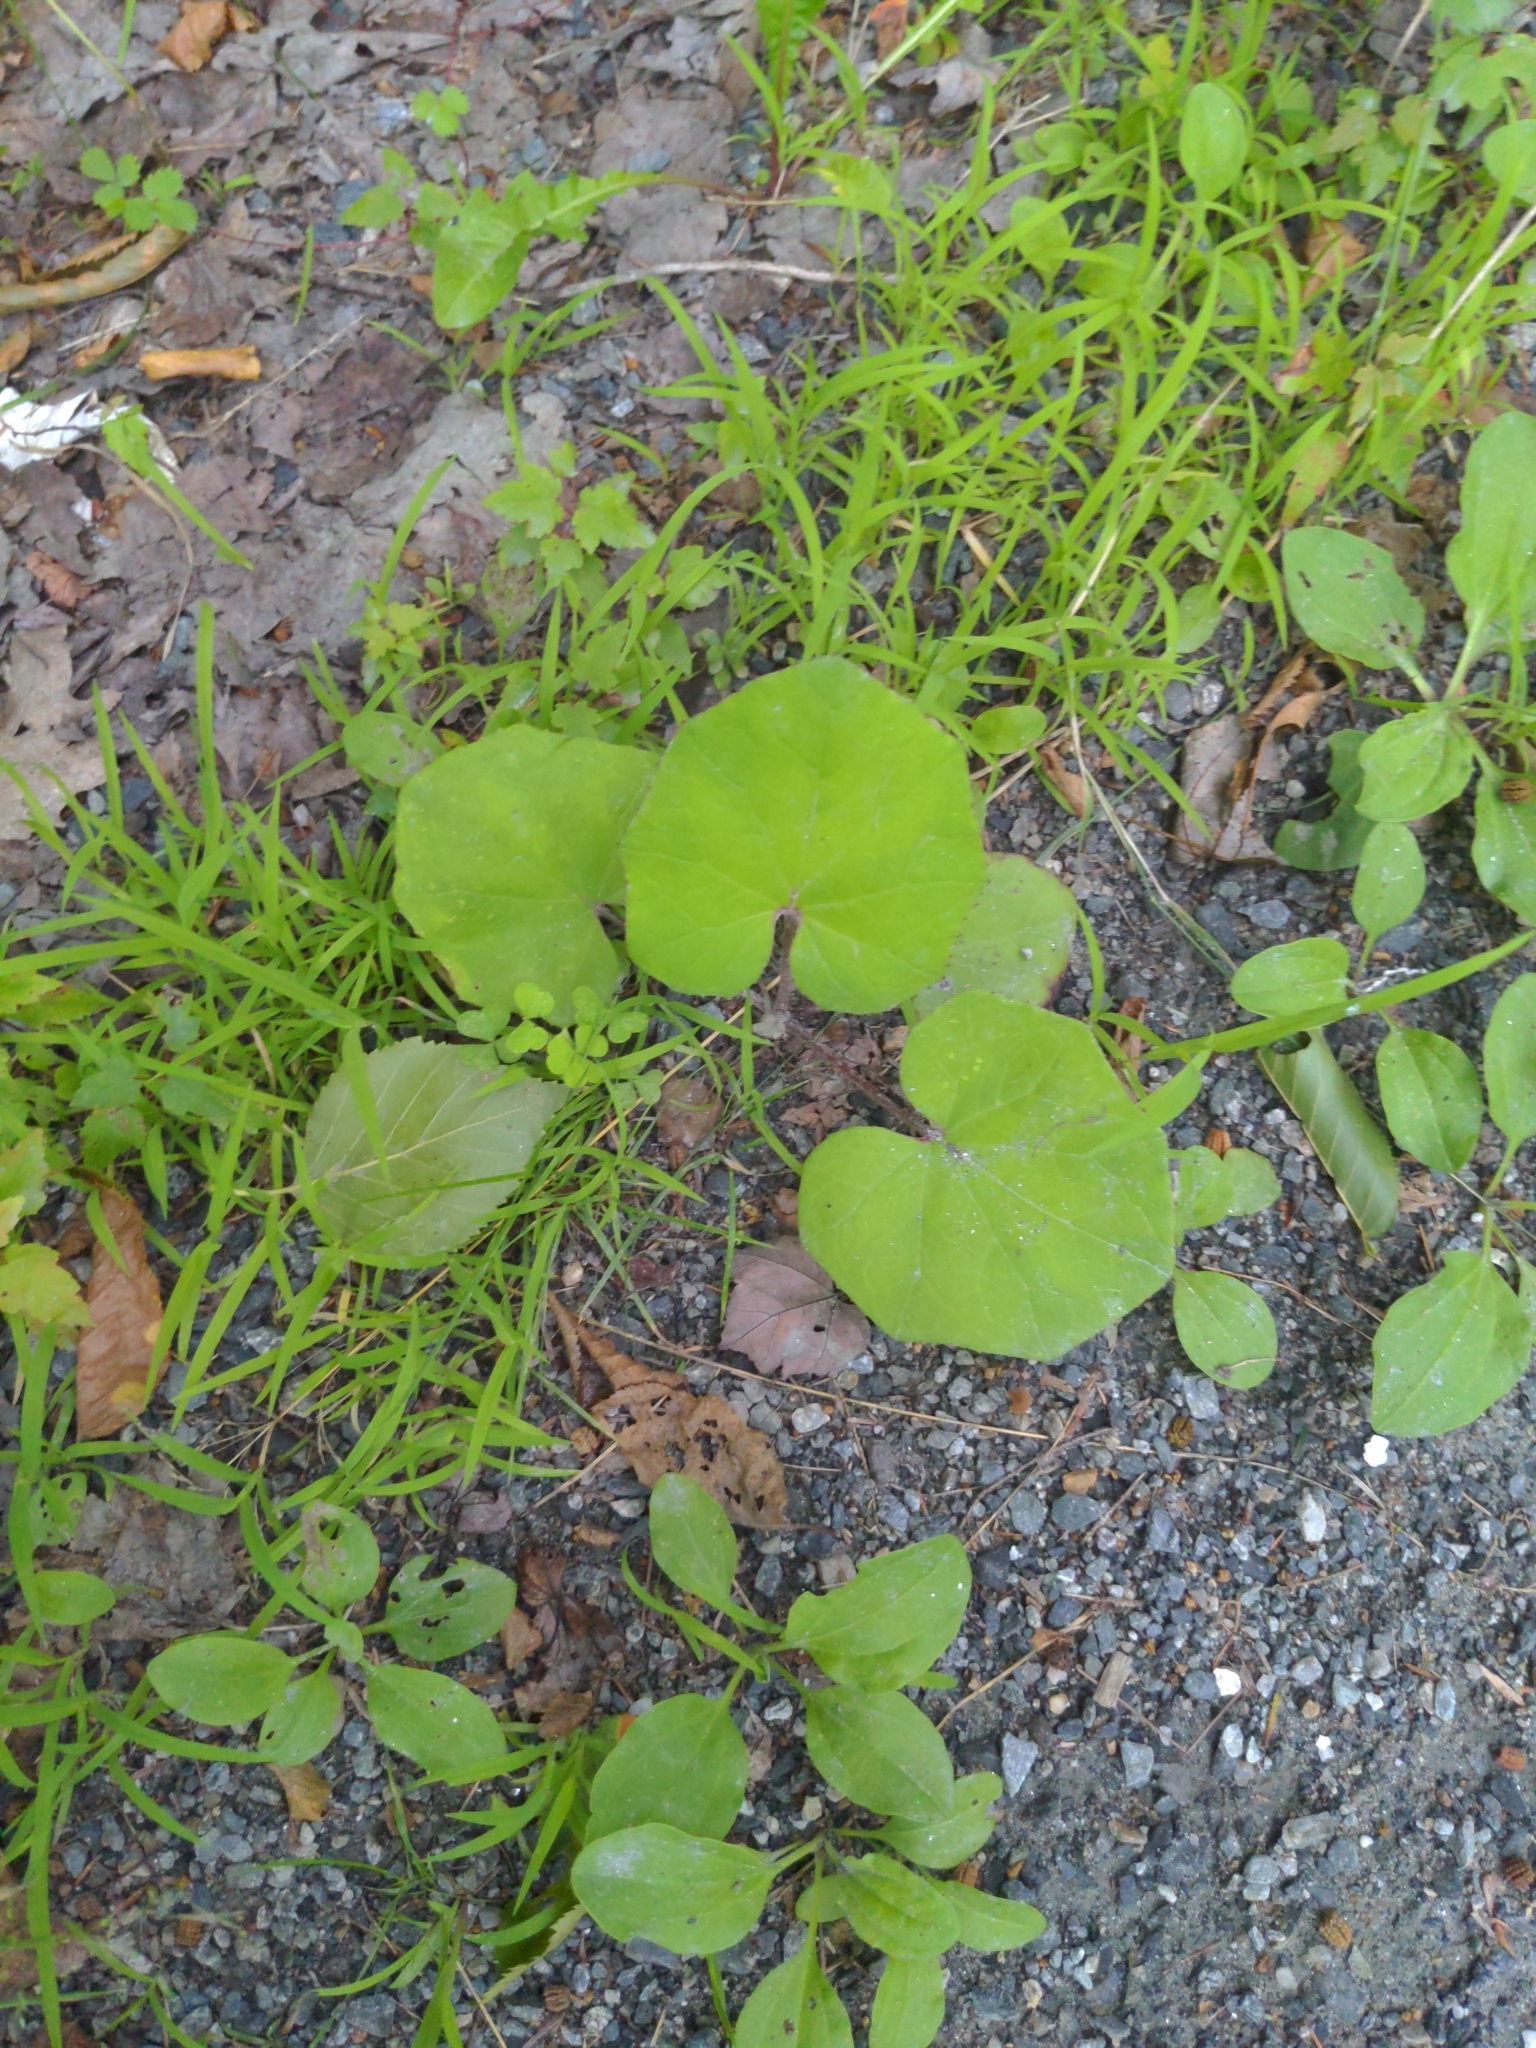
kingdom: Plantae
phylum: Tracheophyta
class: Magnoliopsida
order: Asterales
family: Asteraceae
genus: Tussilago
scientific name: Tussilago farfara
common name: Coltsfoot
